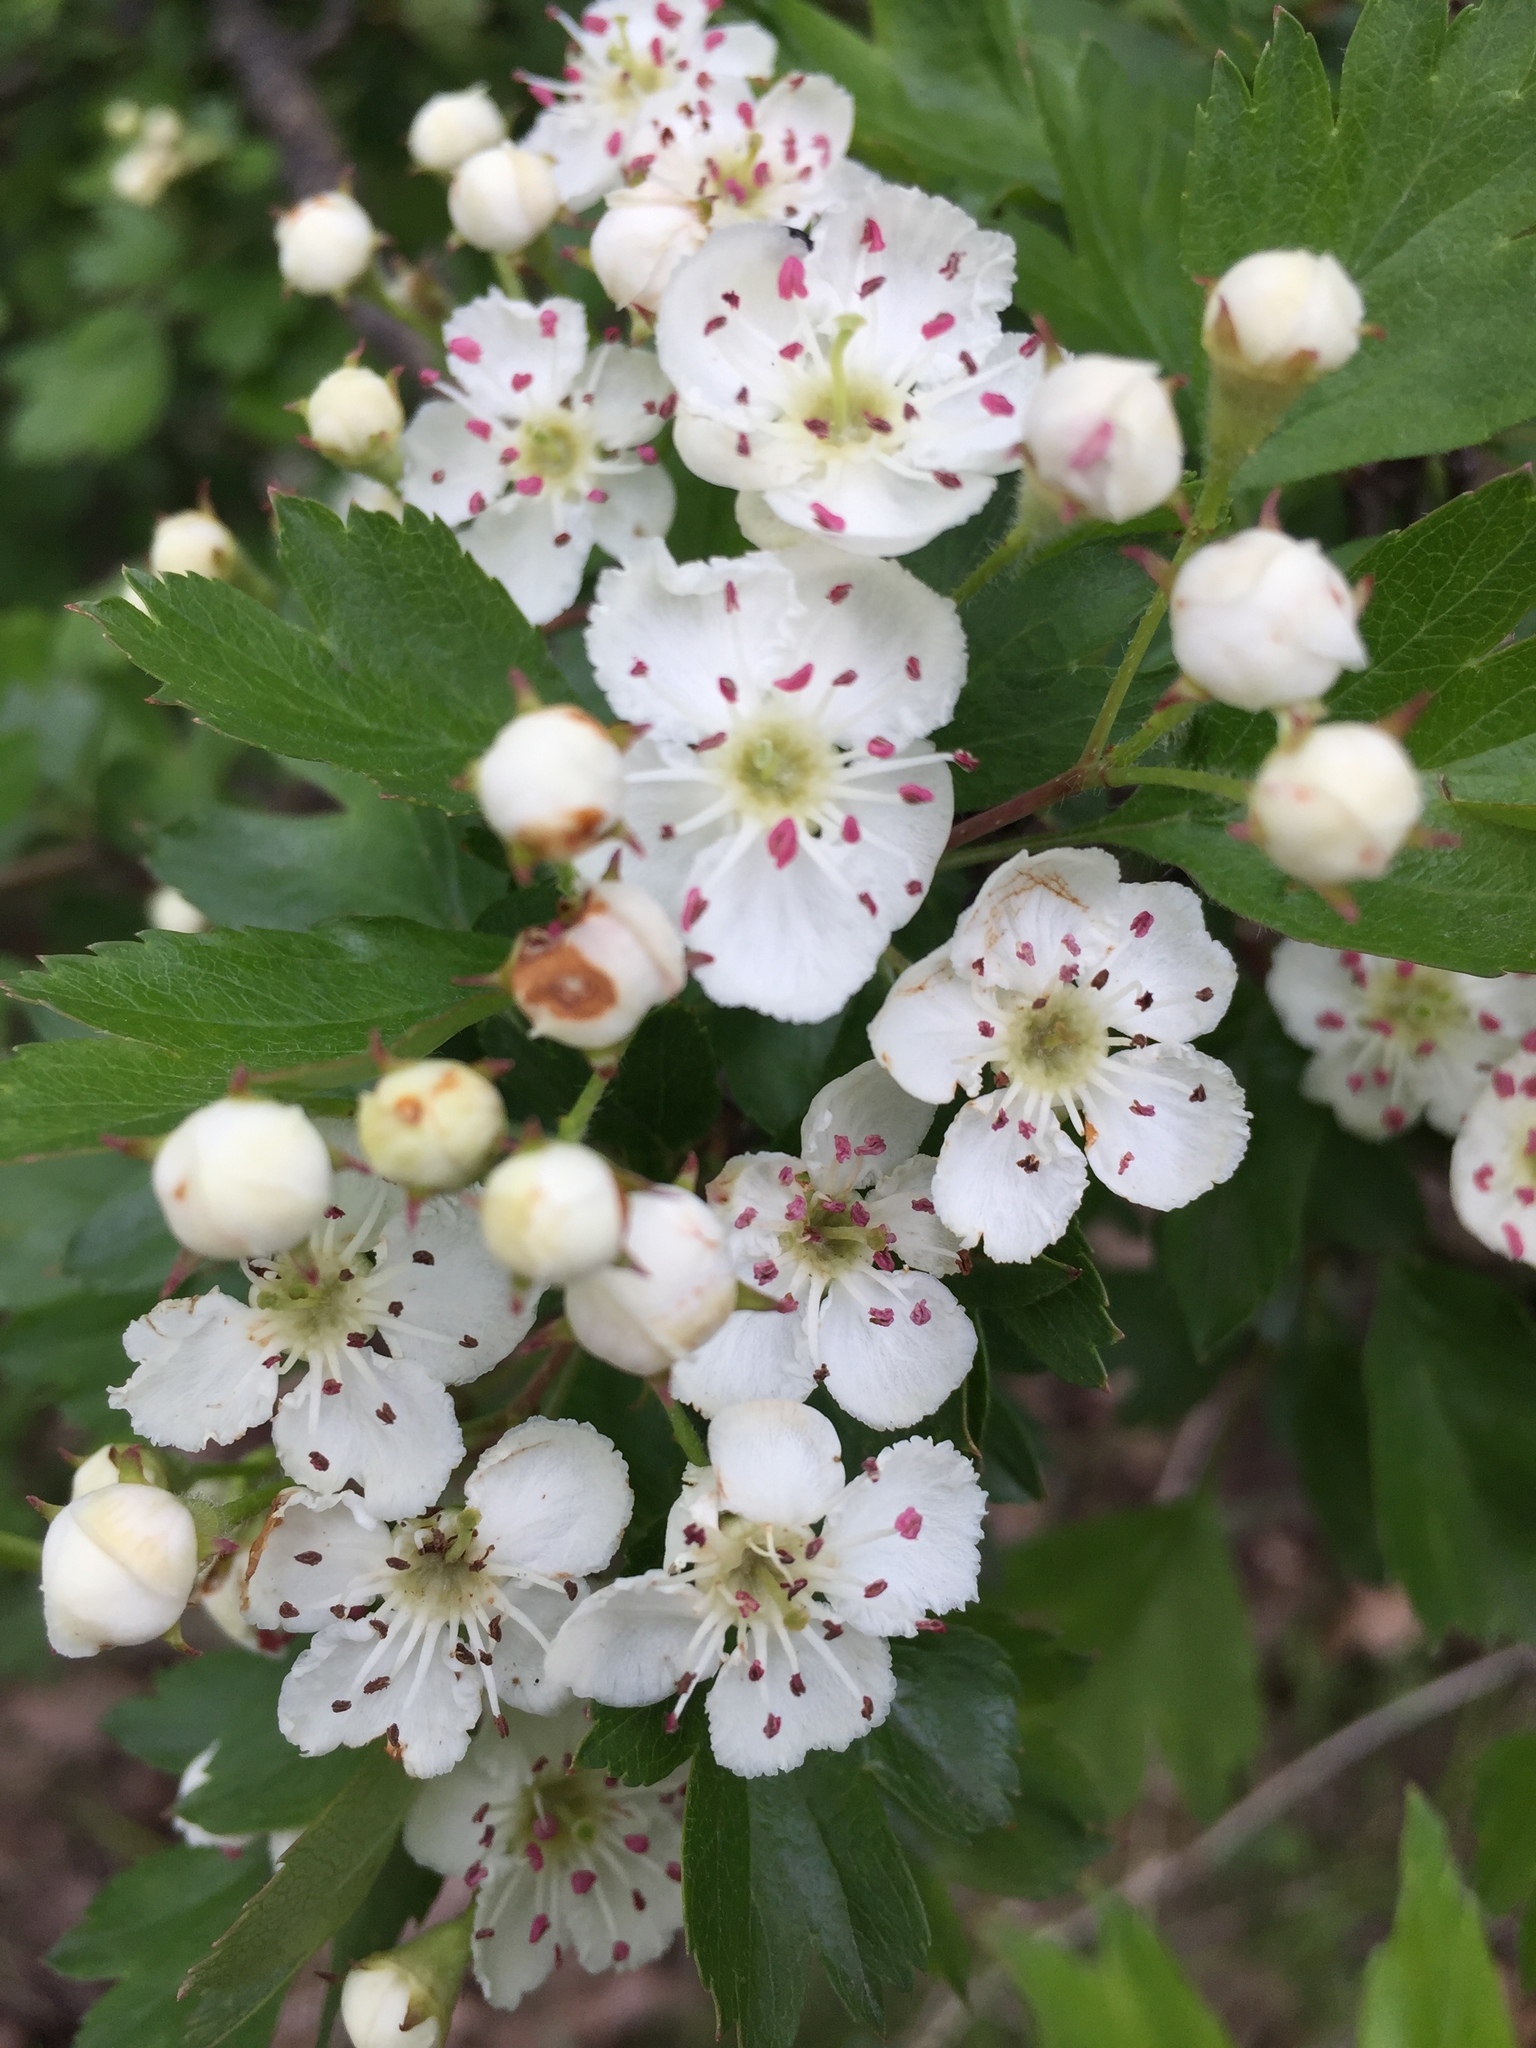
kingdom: Plantae
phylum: Tracheophyta
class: Magnoliopsida
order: Rosales
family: Rosaceae
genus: Crataegus
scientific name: Crataegus monogyna
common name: Hawthorn
